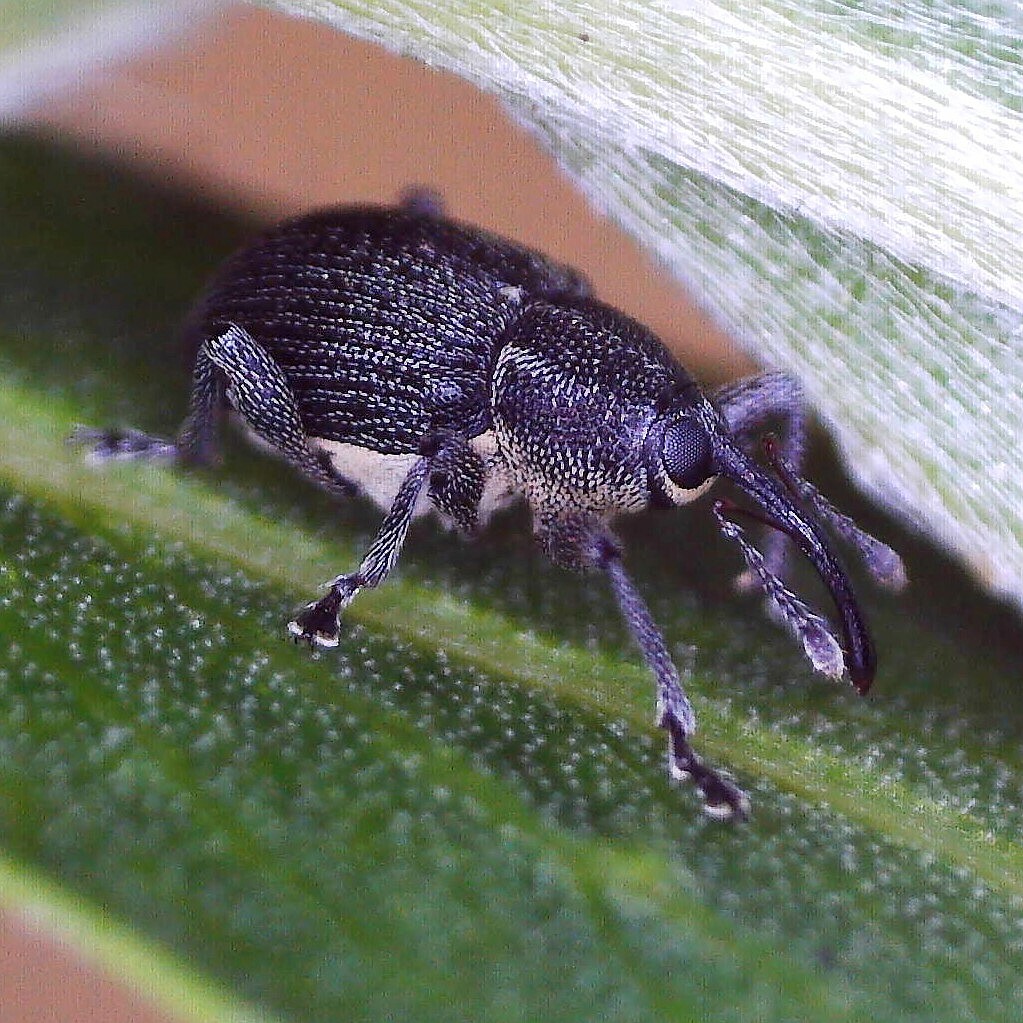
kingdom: Animalia
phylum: Arthropoda
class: Insecta
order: Coleoptera
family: Curculionidae
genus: Archarius
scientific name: Archarius salicivorus
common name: Weevil
